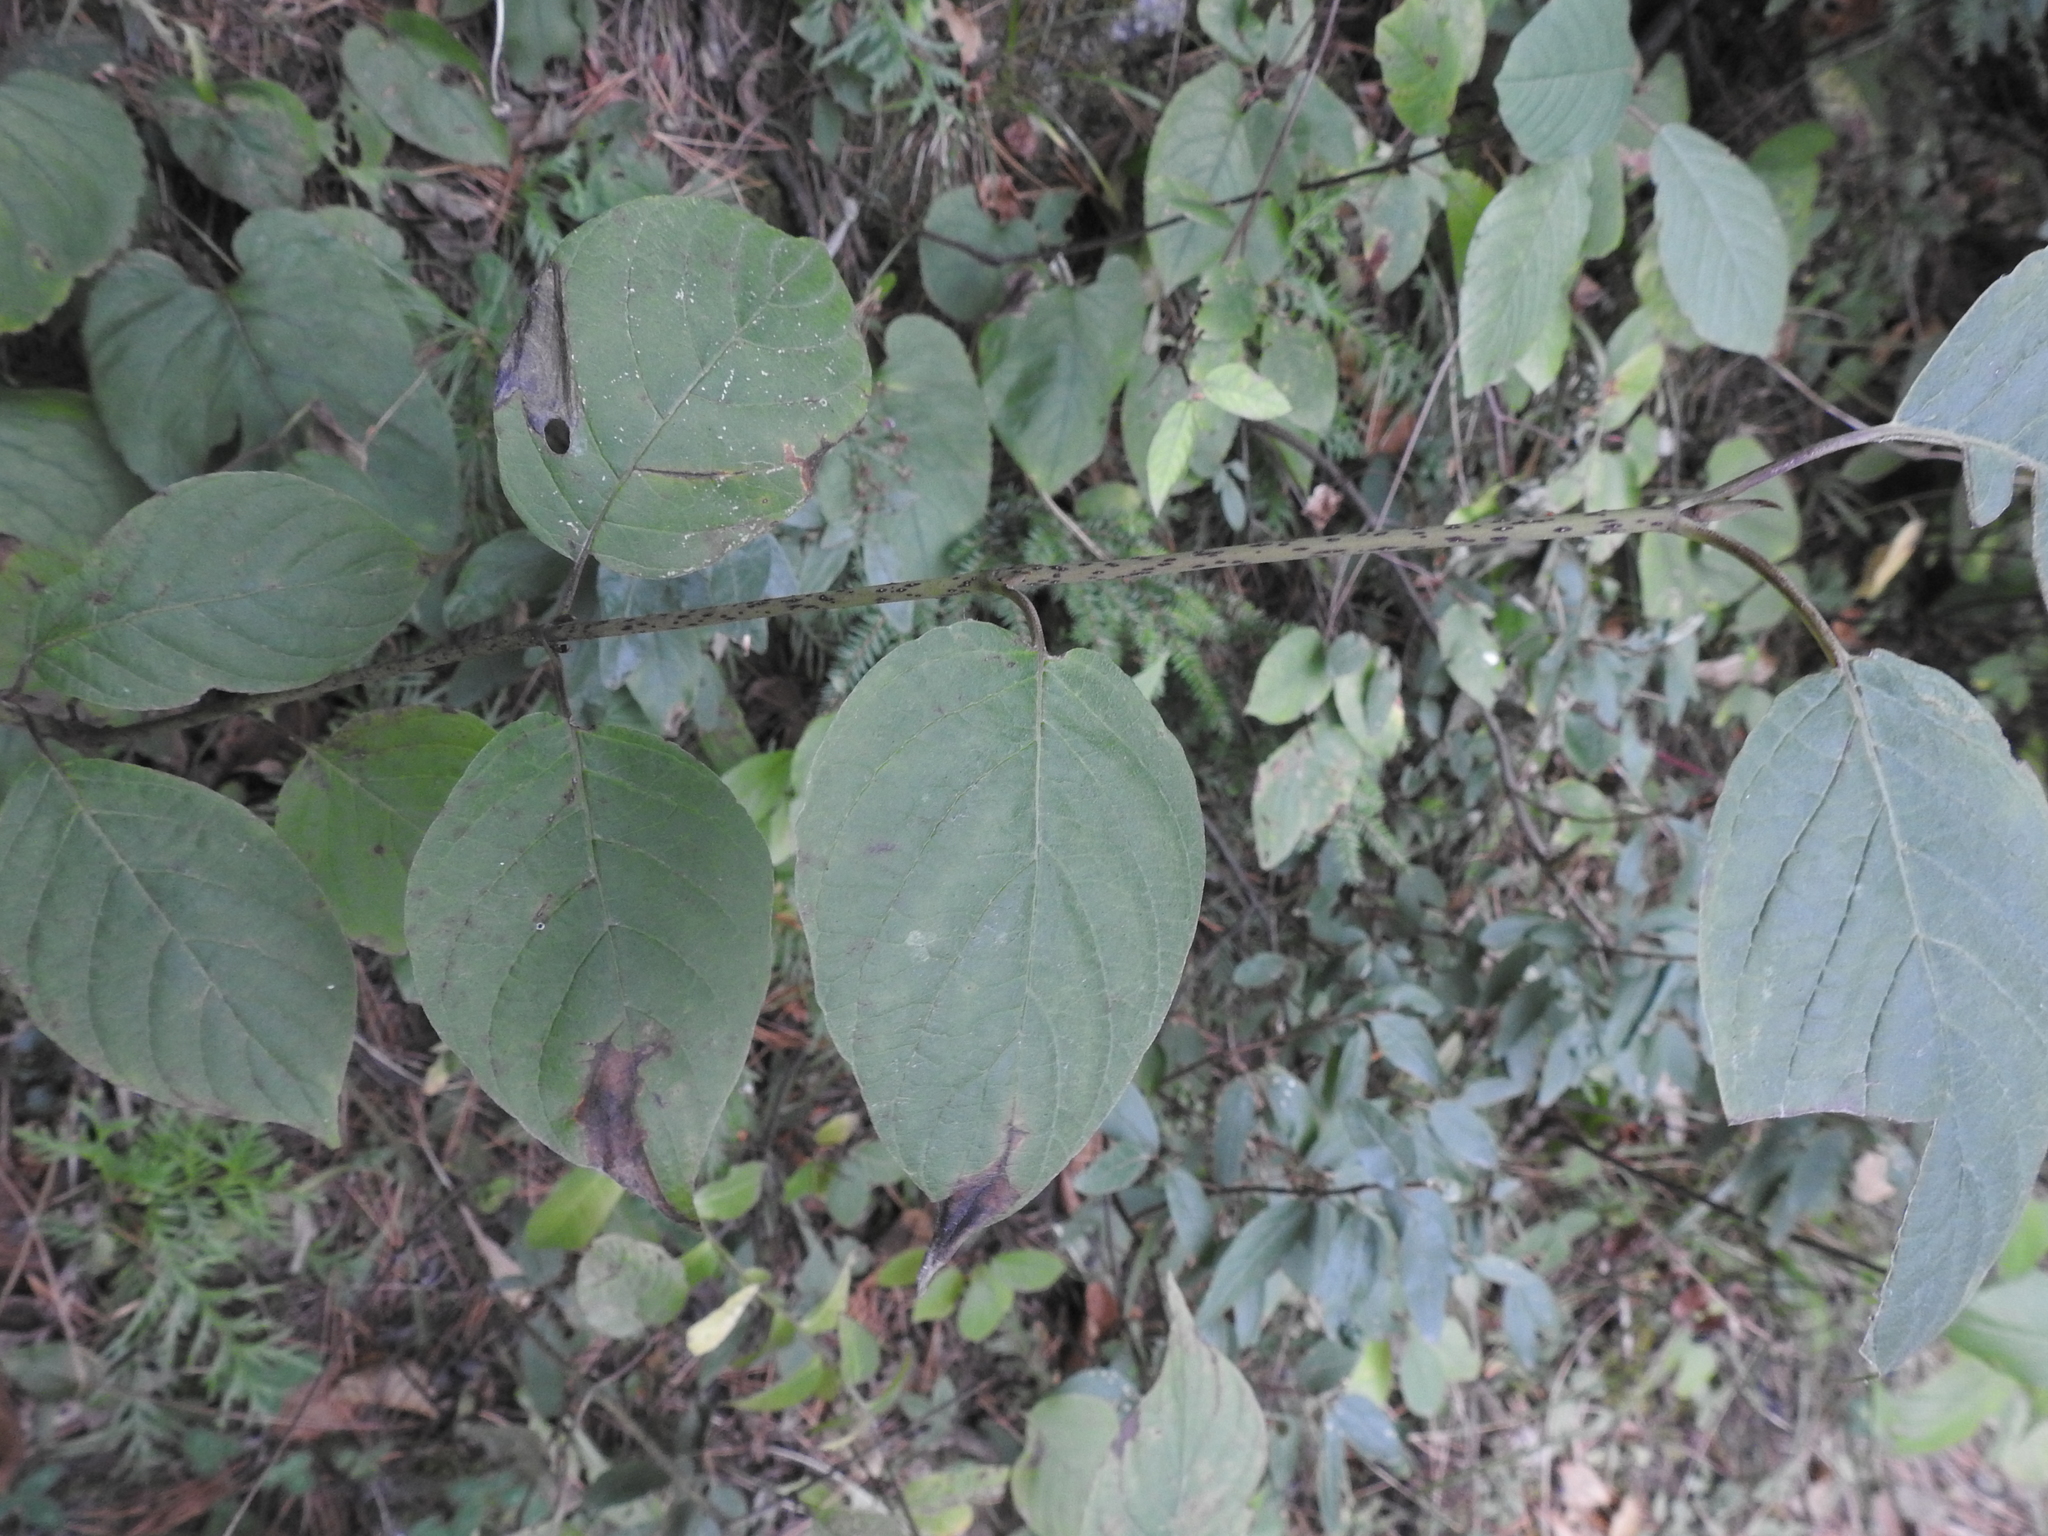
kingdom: Plantae
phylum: Tracheophyta
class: Magnoliopsida
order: Cornales
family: Cornaceae
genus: Cornus
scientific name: Cornus rugosa
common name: Round-leaf dogwood
